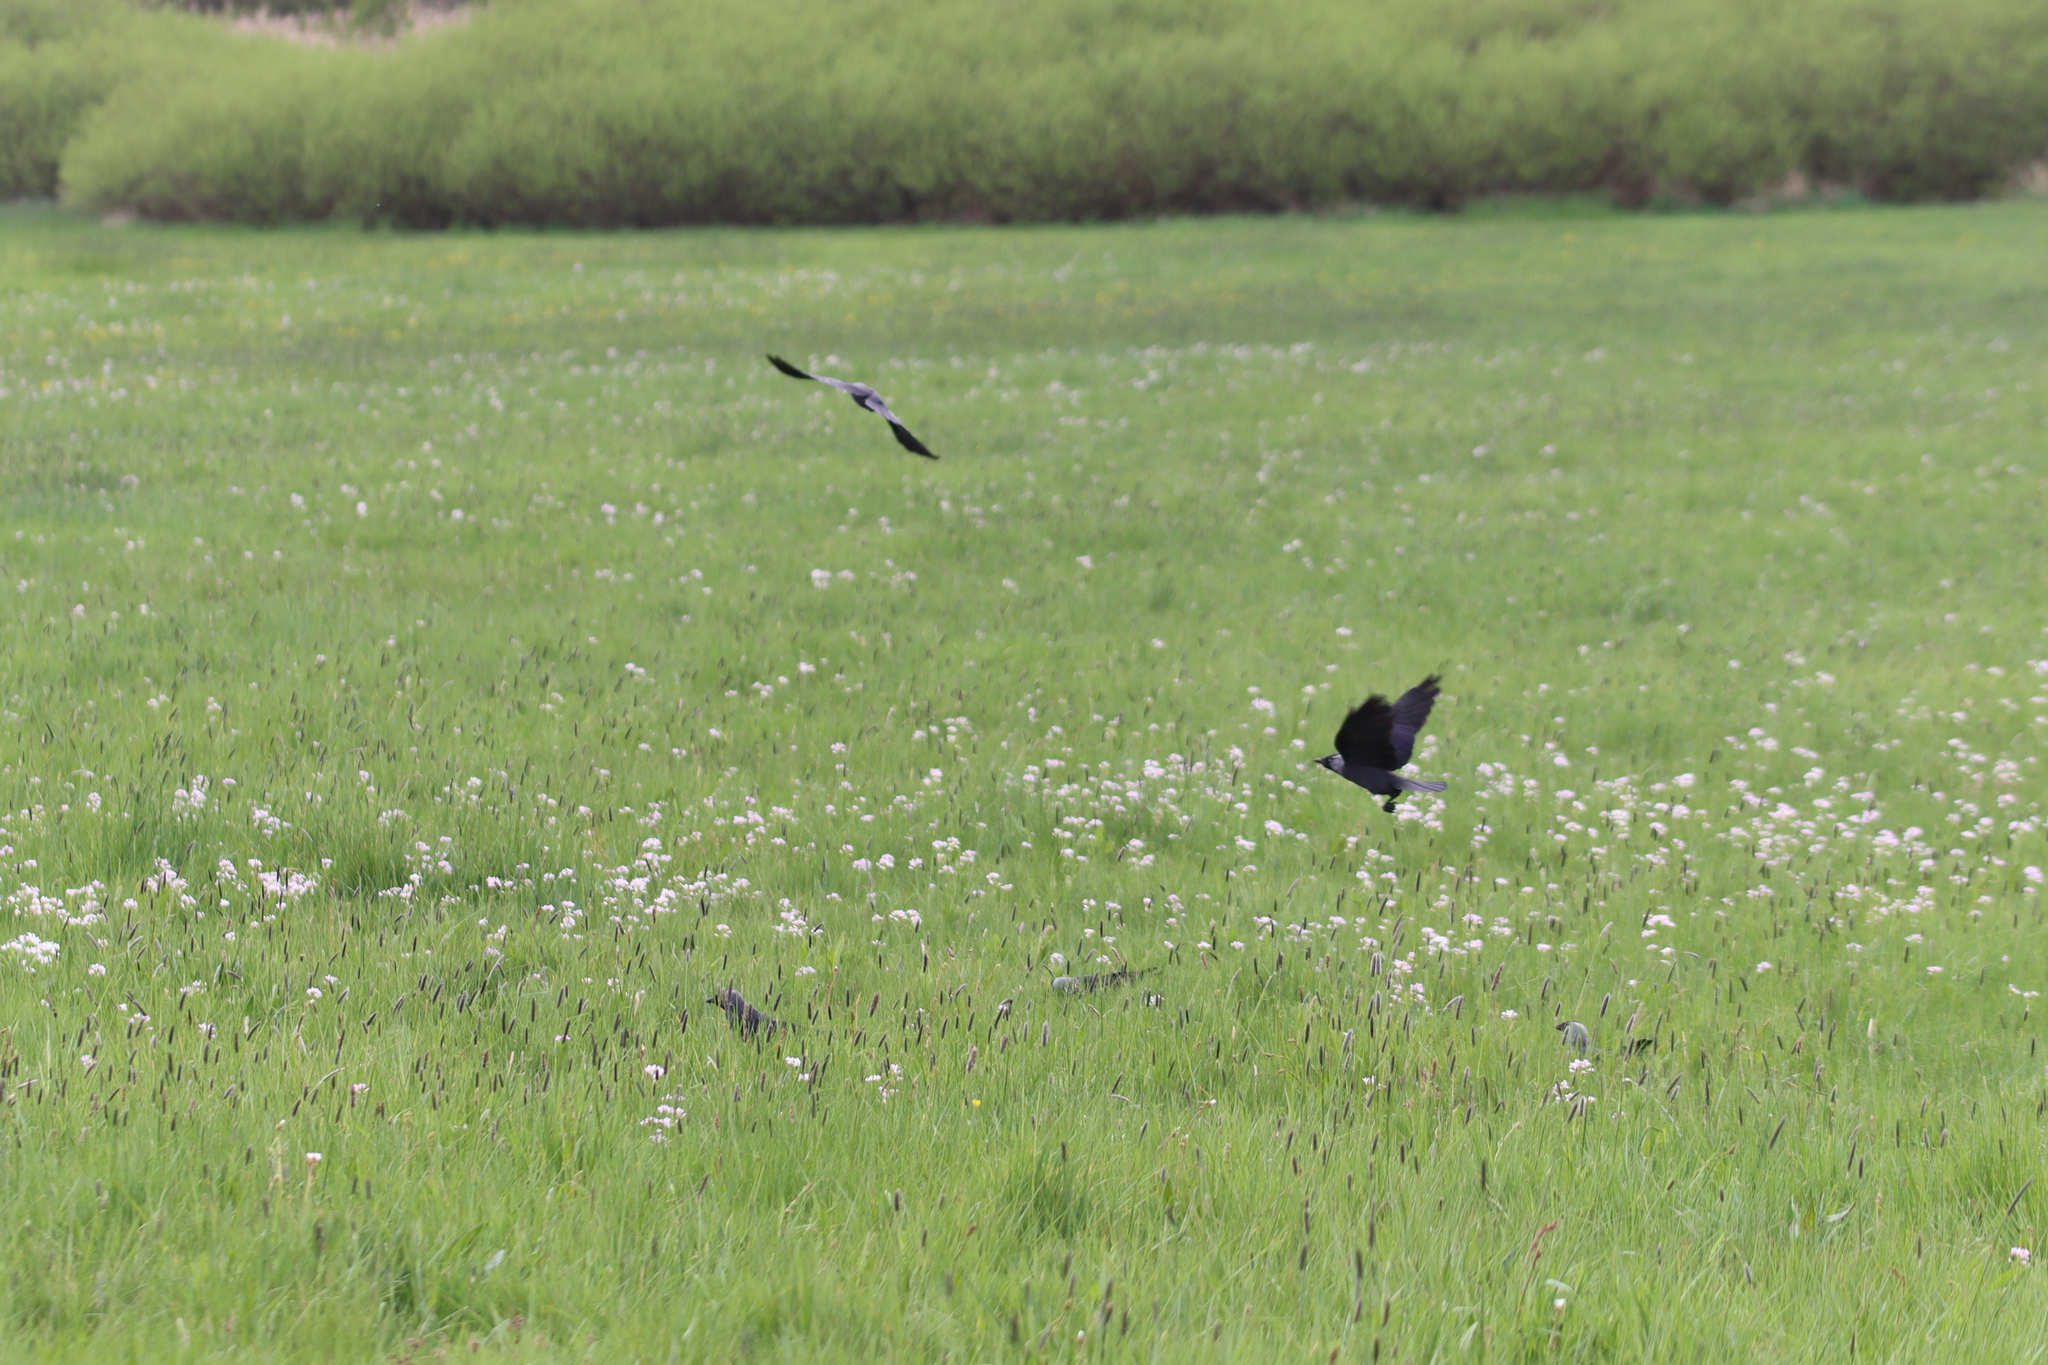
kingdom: Animalia
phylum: Chordata
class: Aves
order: Passeriformes
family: Corvidae
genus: Coloeus
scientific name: Coloeus monedula
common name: Western jackdaw
